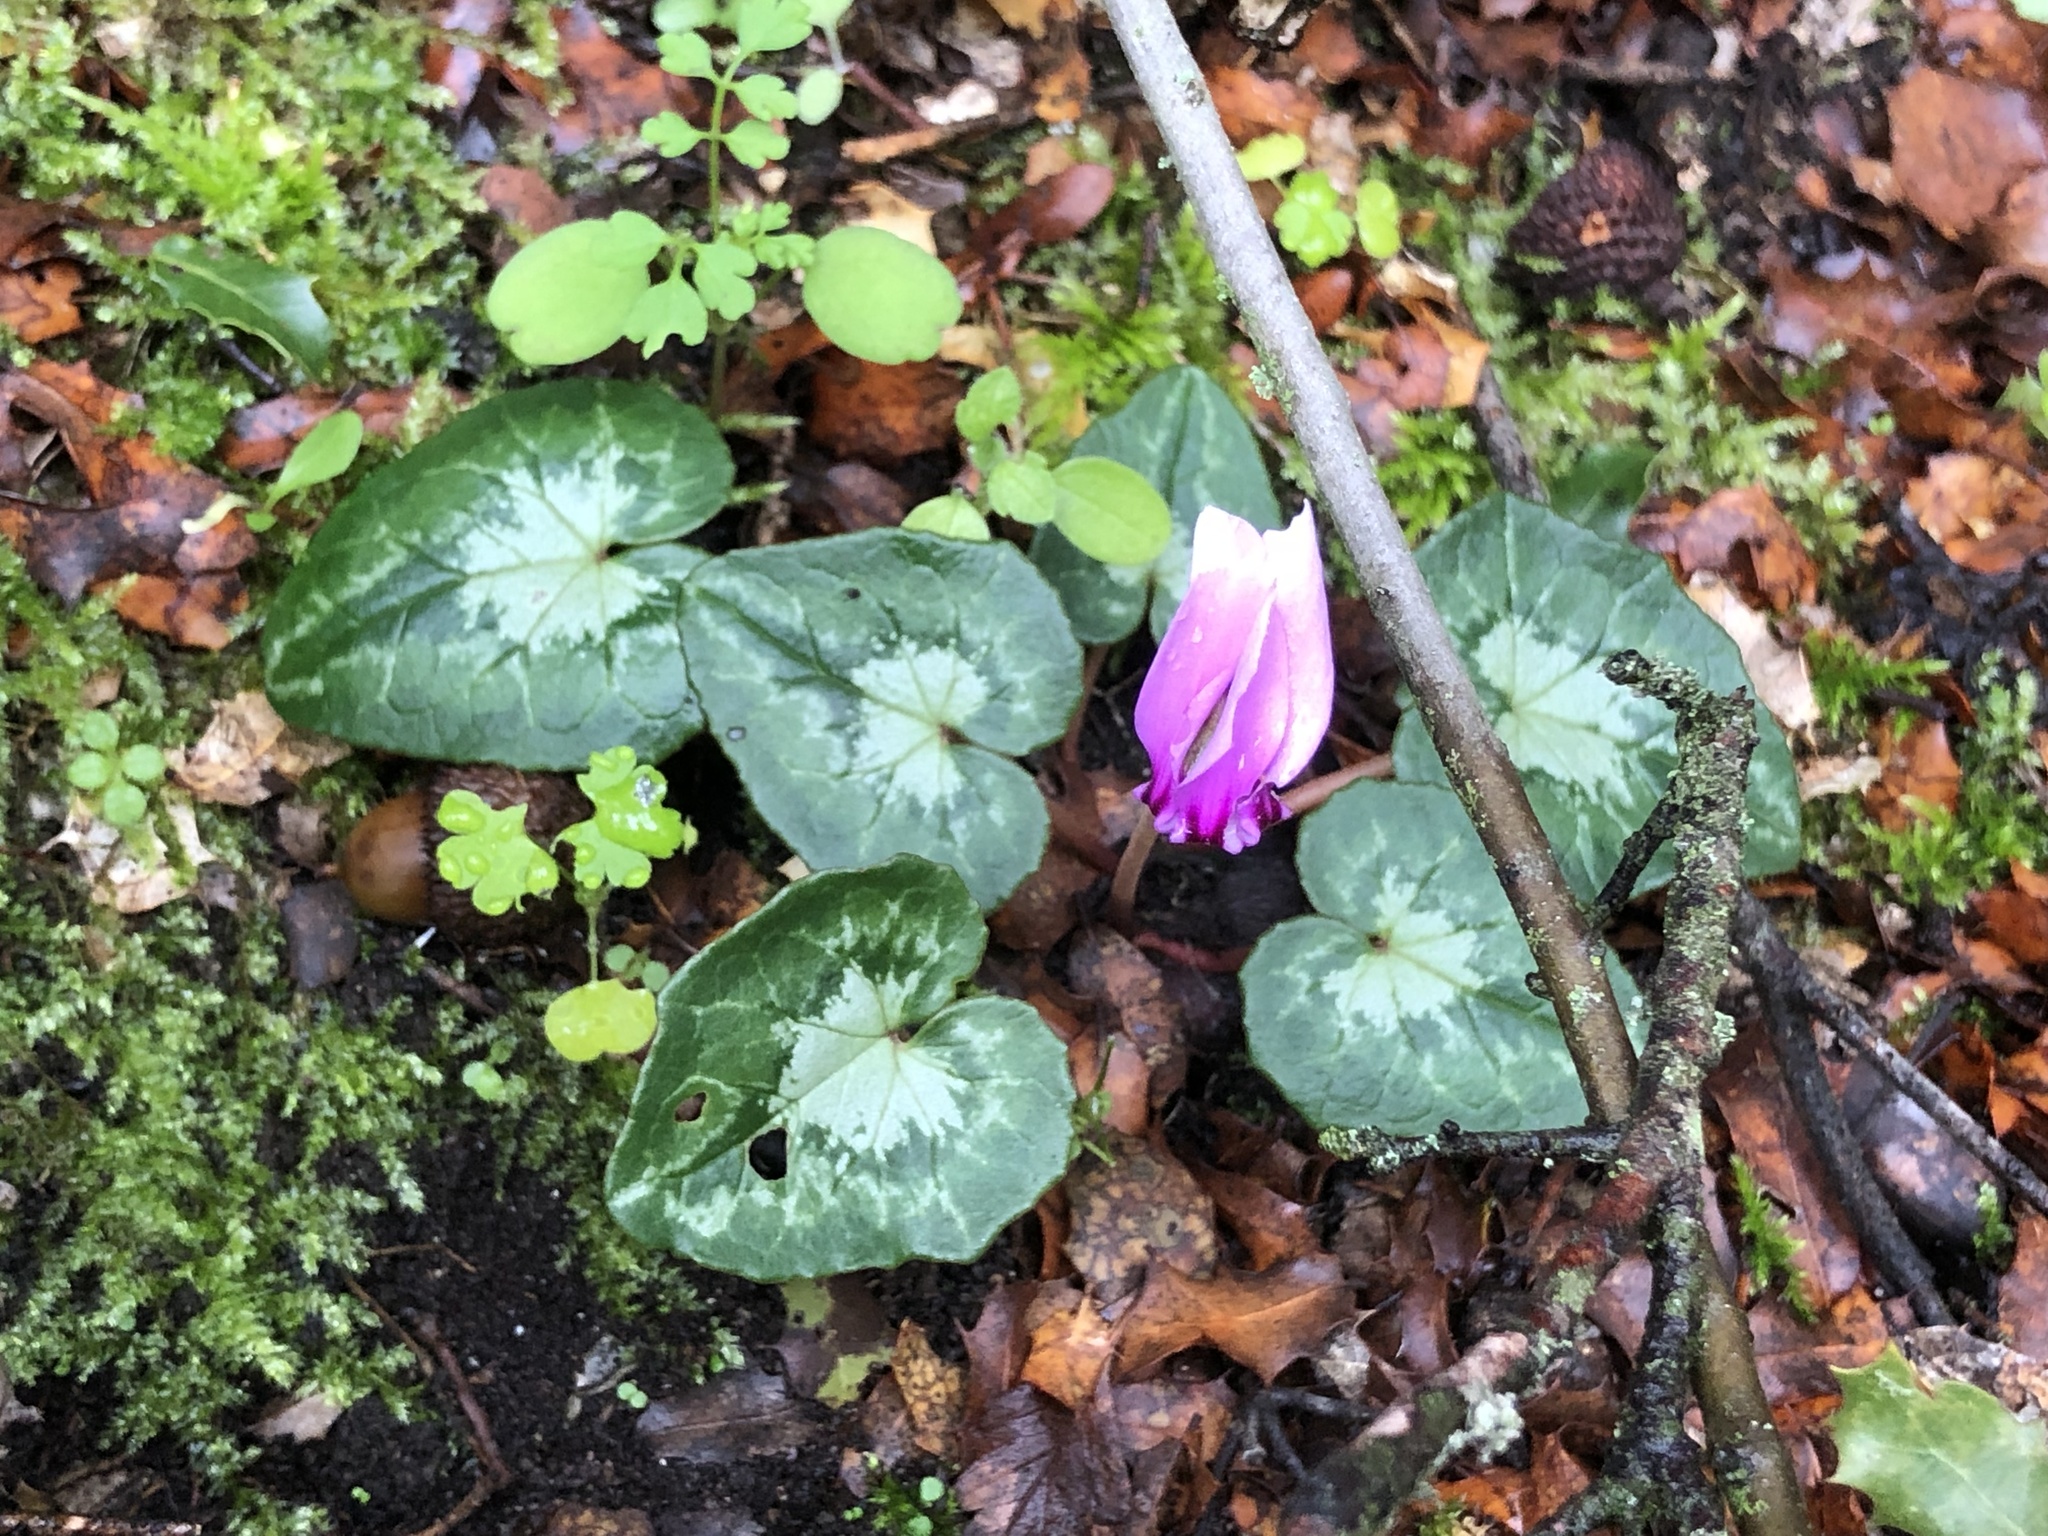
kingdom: Plantae
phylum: Tracheophyta
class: Magnoliopsida
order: Ericales
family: Primulaceae
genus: Cyclamen
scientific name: Cyclamen hederifolium
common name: Sowbread
